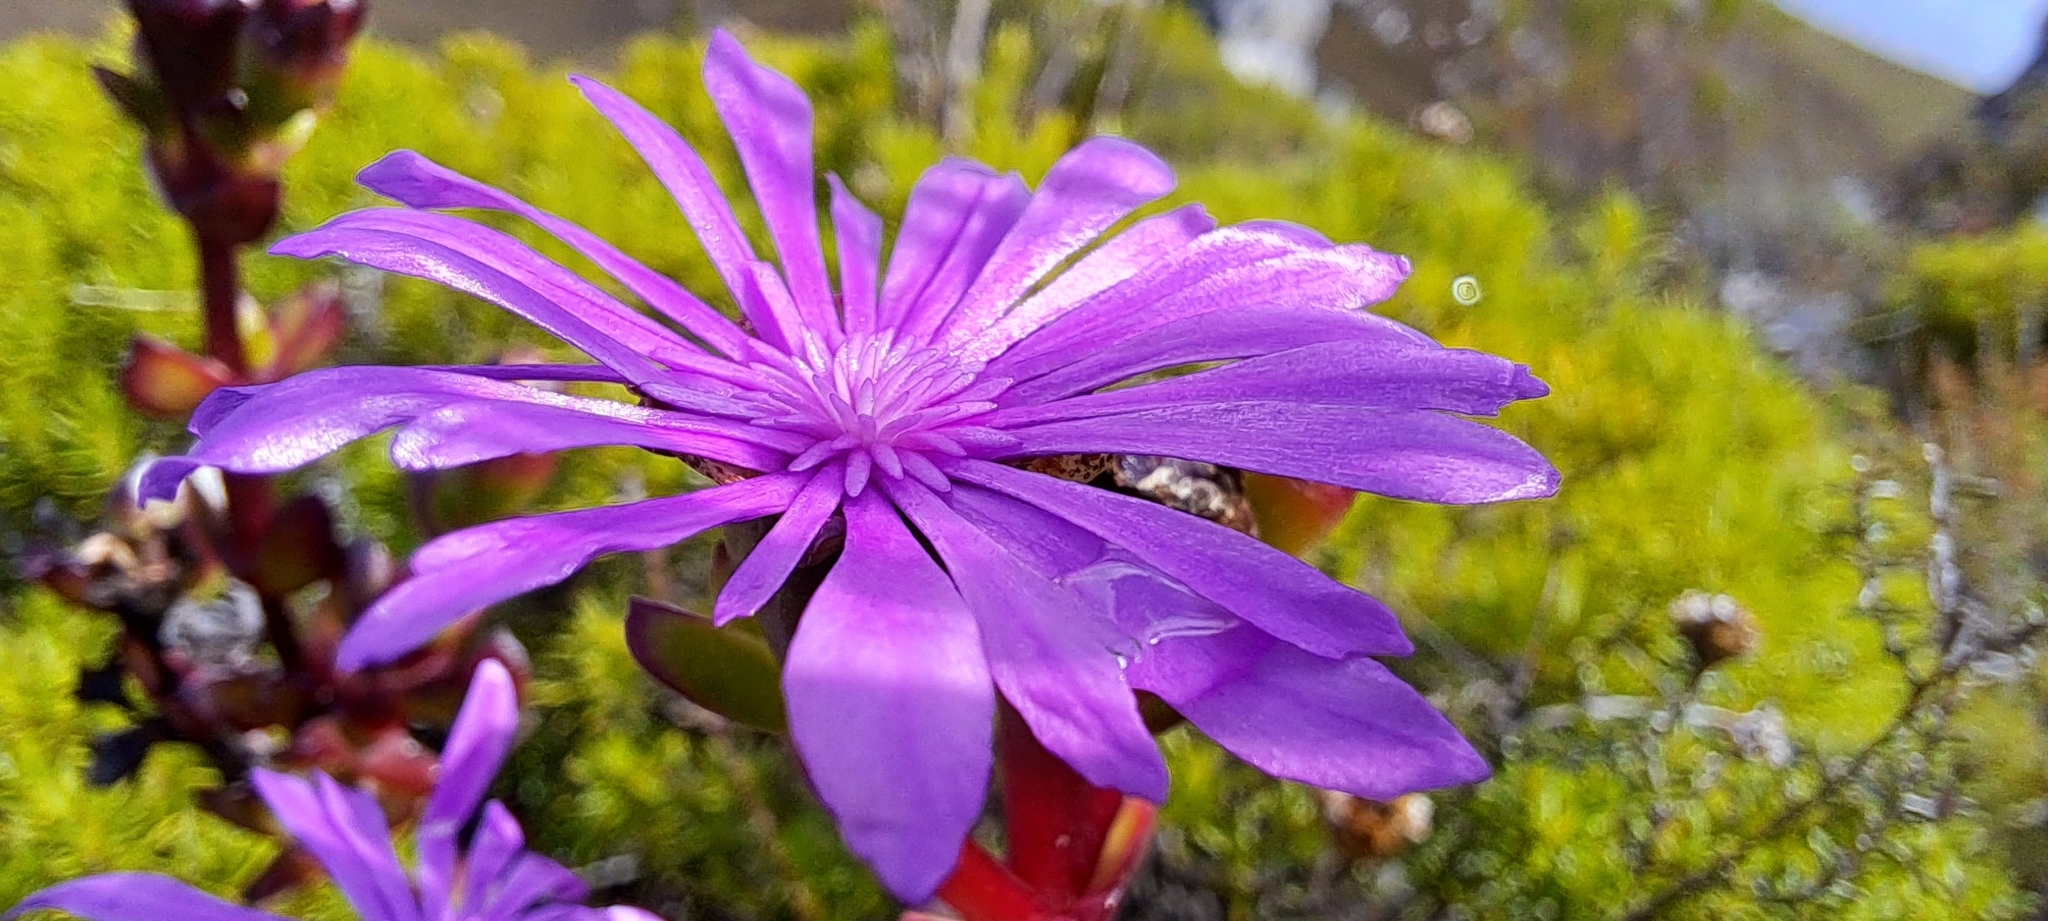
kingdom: Plantae
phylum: Tracheophyta
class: Magnoliopsida
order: Caryophyllales
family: Aizoaceae
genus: Erepsia
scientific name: Erepsia inclaudens
